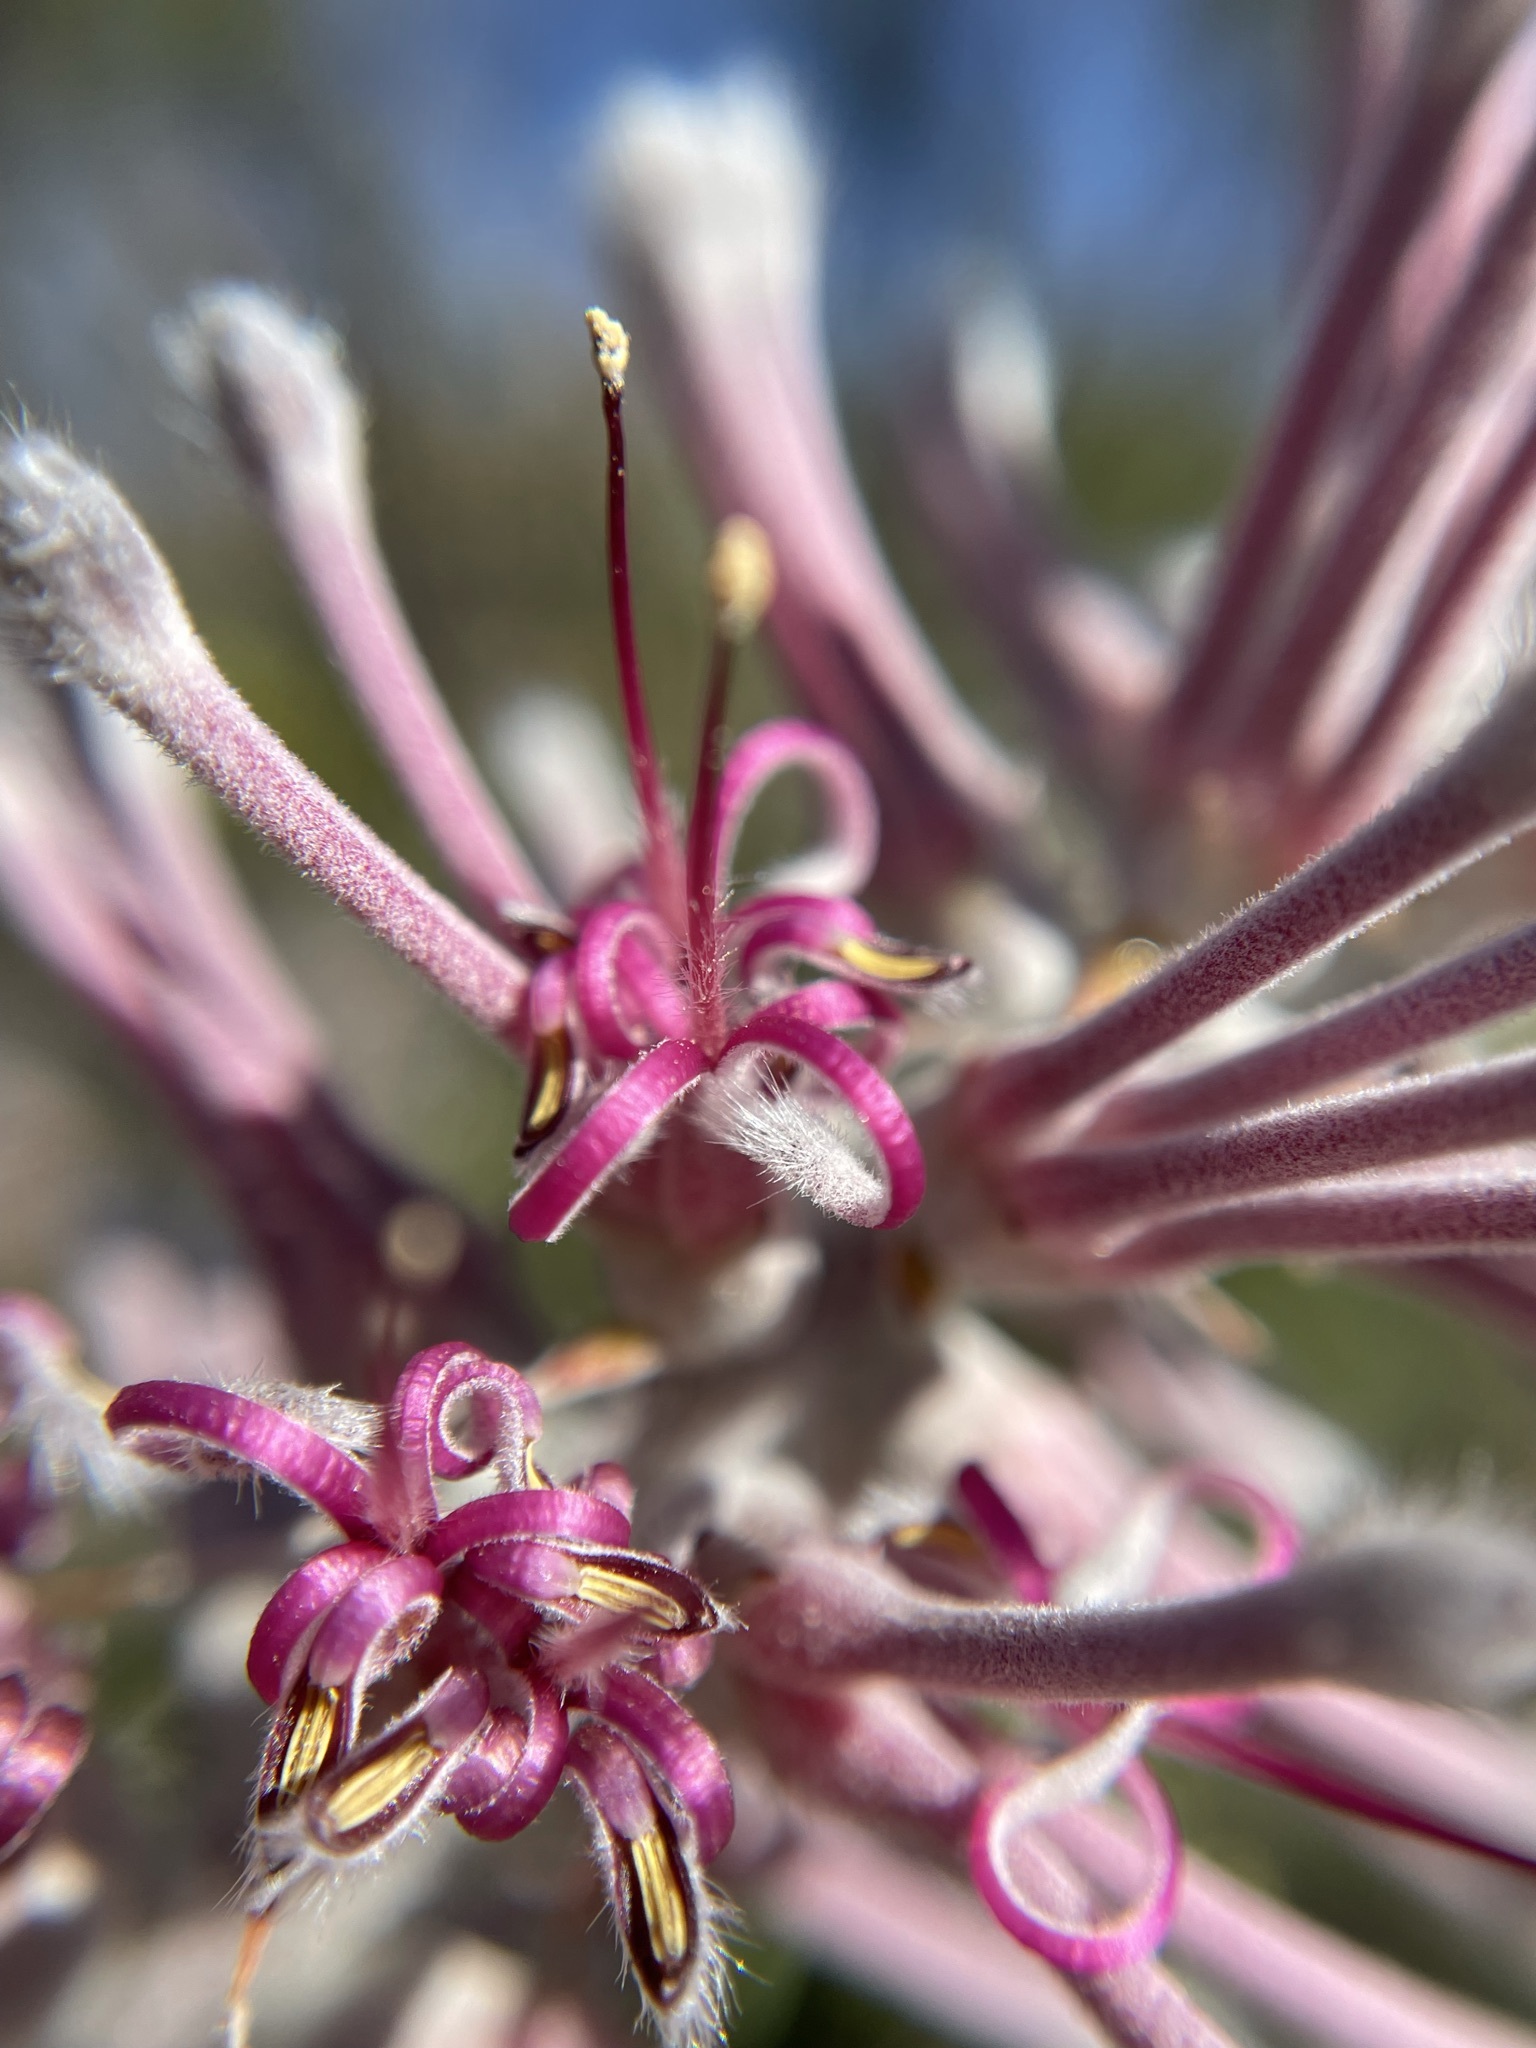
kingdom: Plantae
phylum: Tracheophyta
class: Magnoliopsida
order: Proteales
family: Proteaceae
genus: Paranomus
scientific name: Paranomus bracteolaris
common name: Bokkeveld tree sceptre
